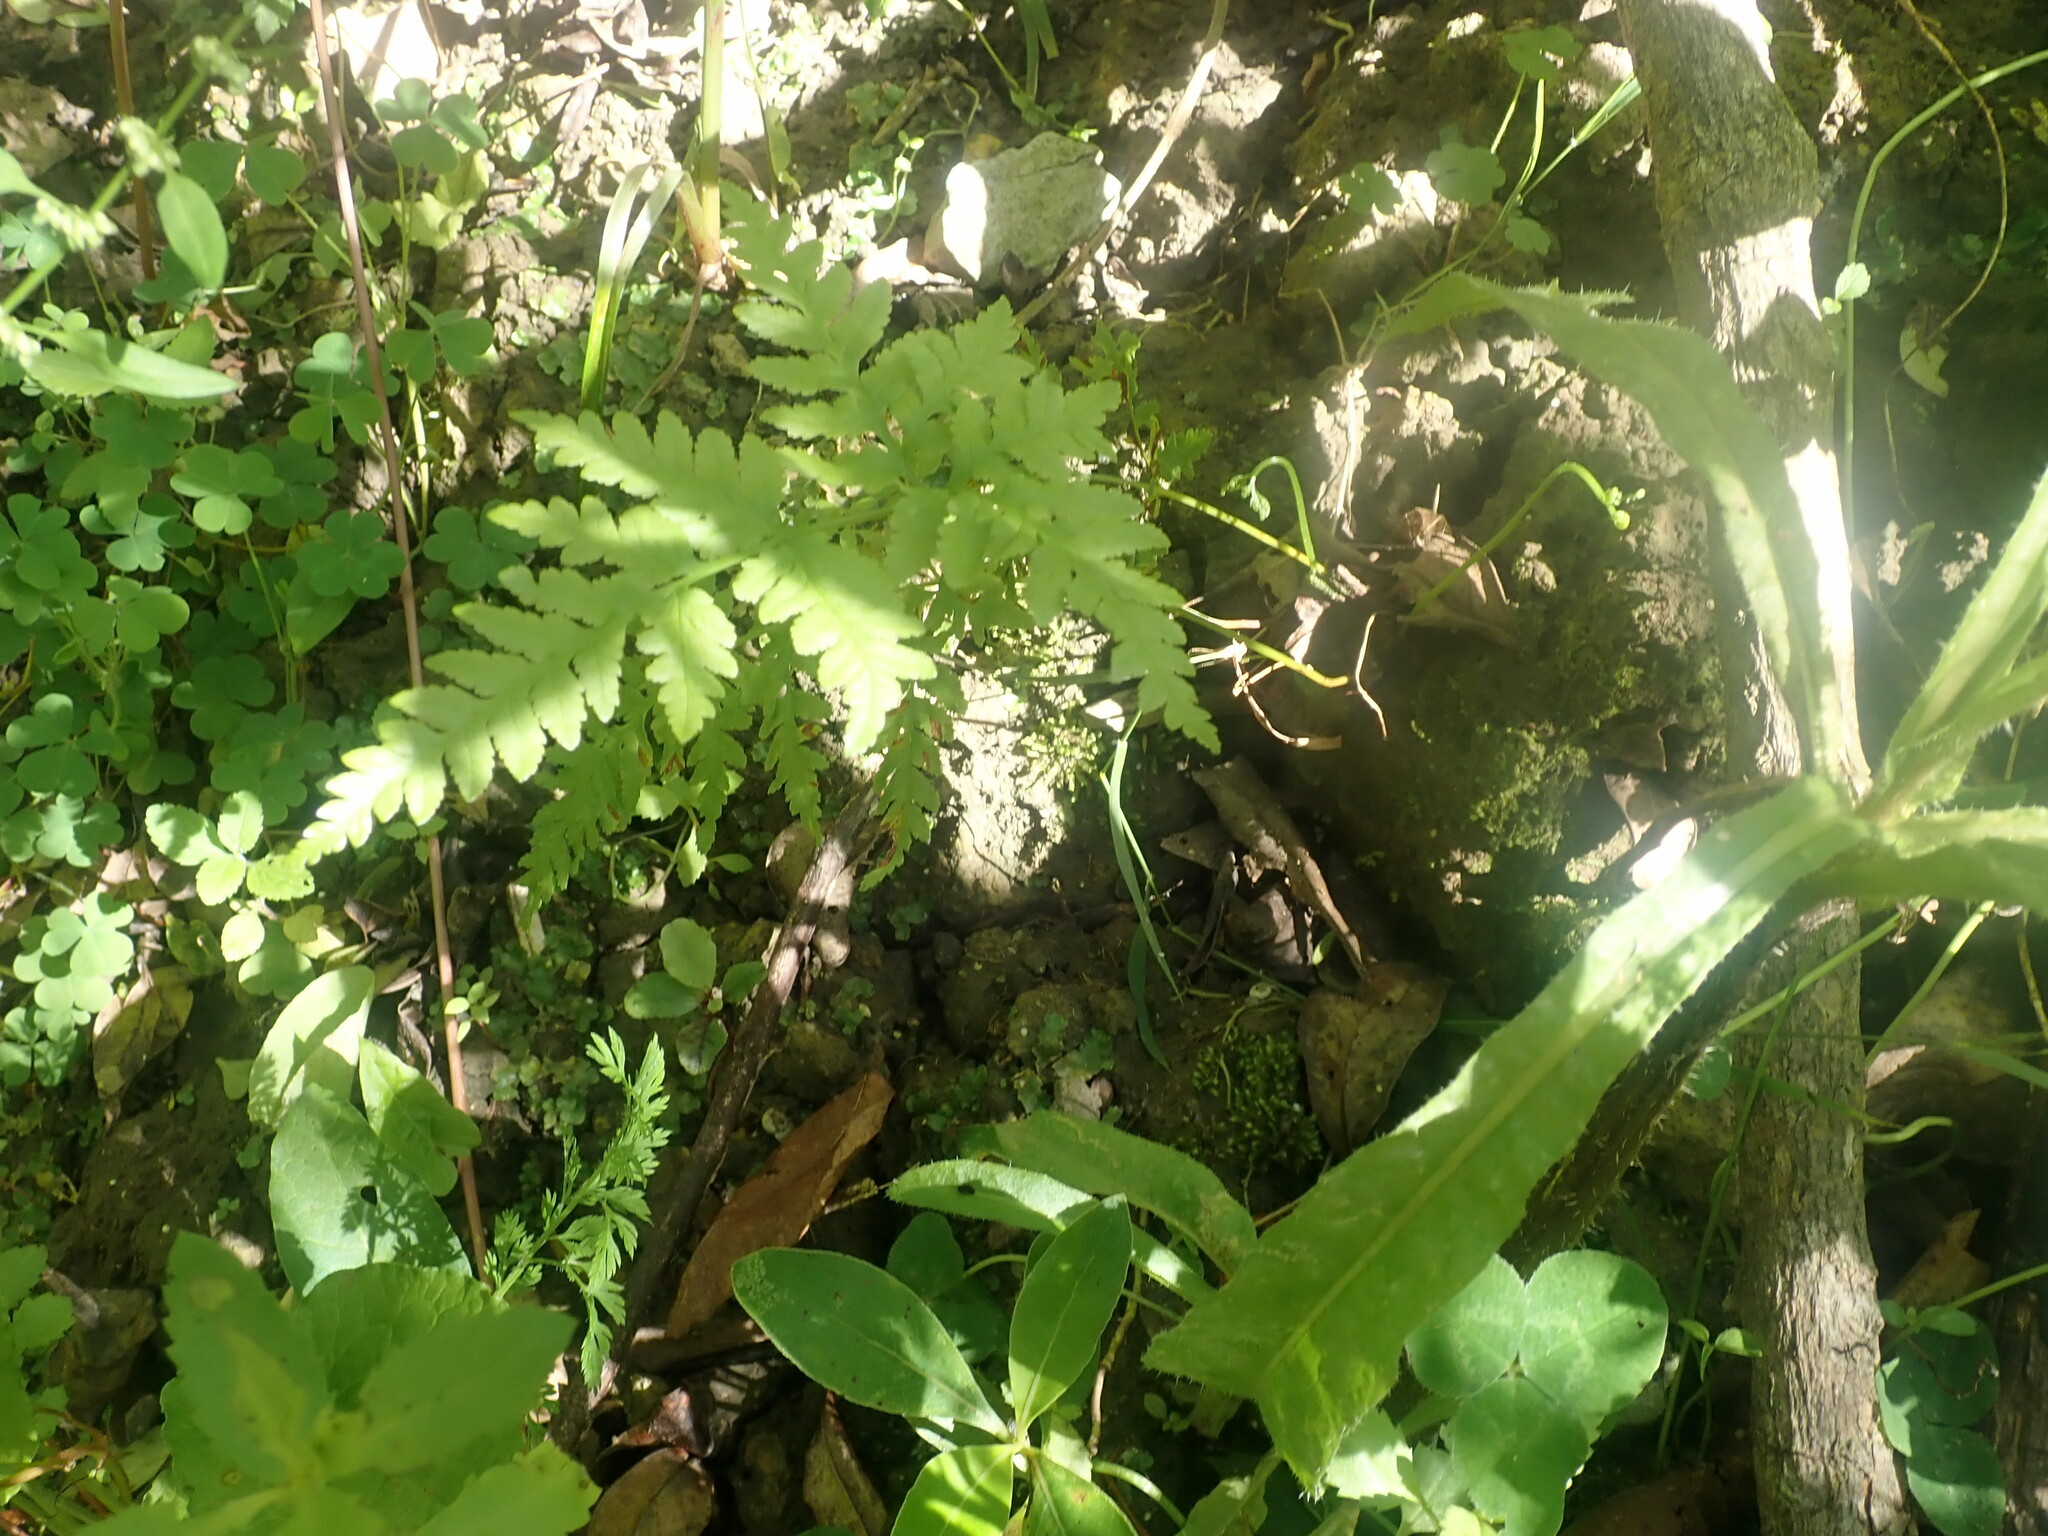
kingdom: Plantae
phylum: Tracheophyta
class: Polypodiopsida
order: Polypodiales
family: Pteridaceae
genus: Pteris
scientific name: Pteris tremula
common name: Australian brake
